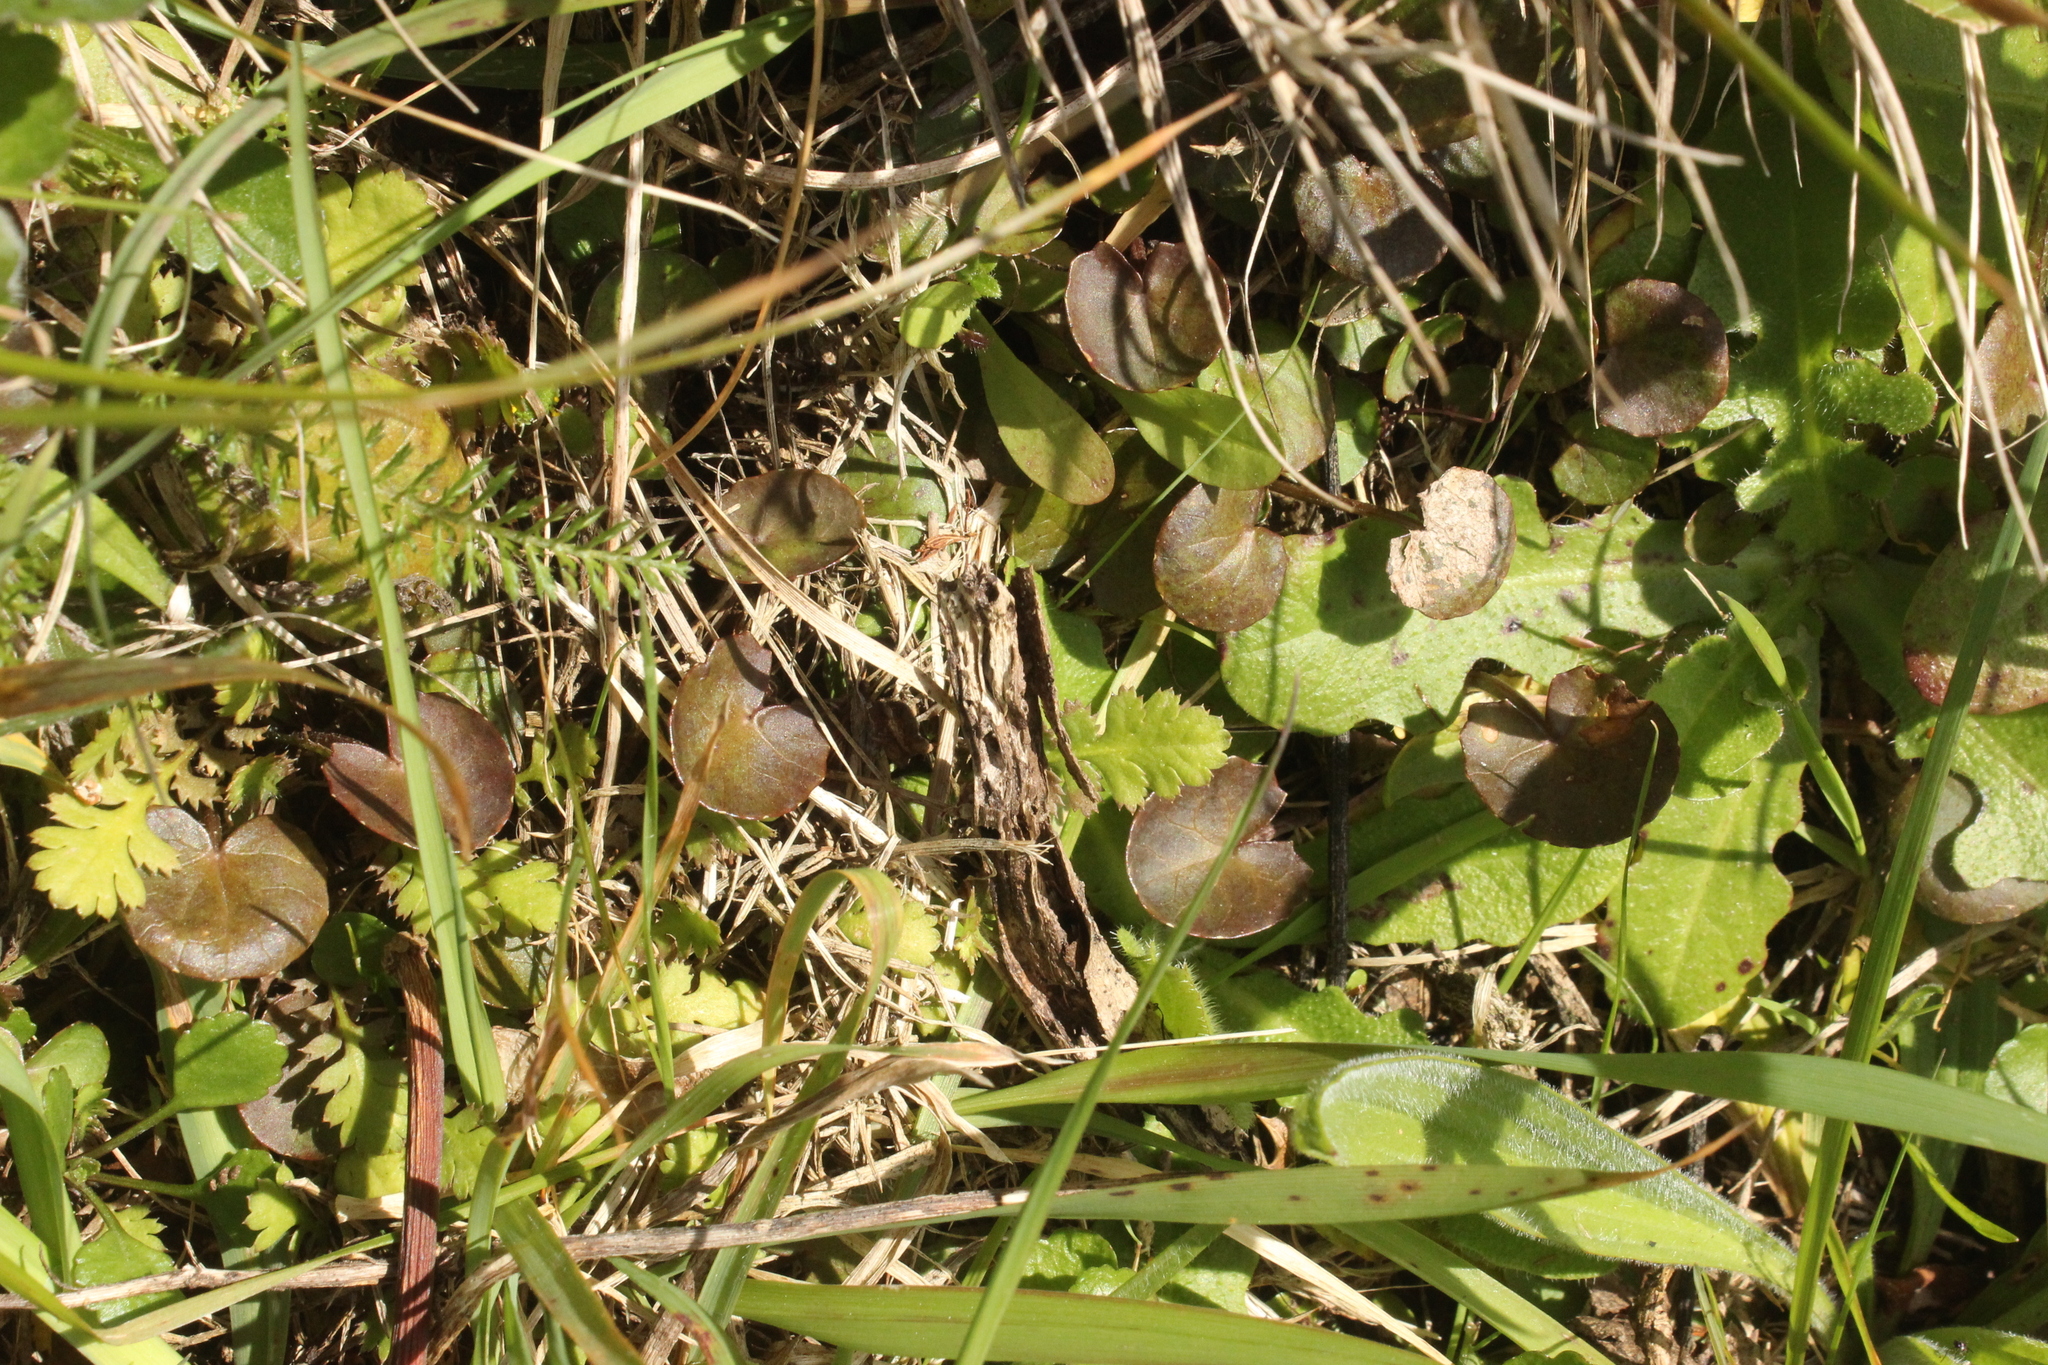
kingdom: Plantae
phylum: Tracheophyta
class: Magnoliopsida
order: Apiales
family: Apiaceae
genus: Centella
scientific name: Centella uniflora
